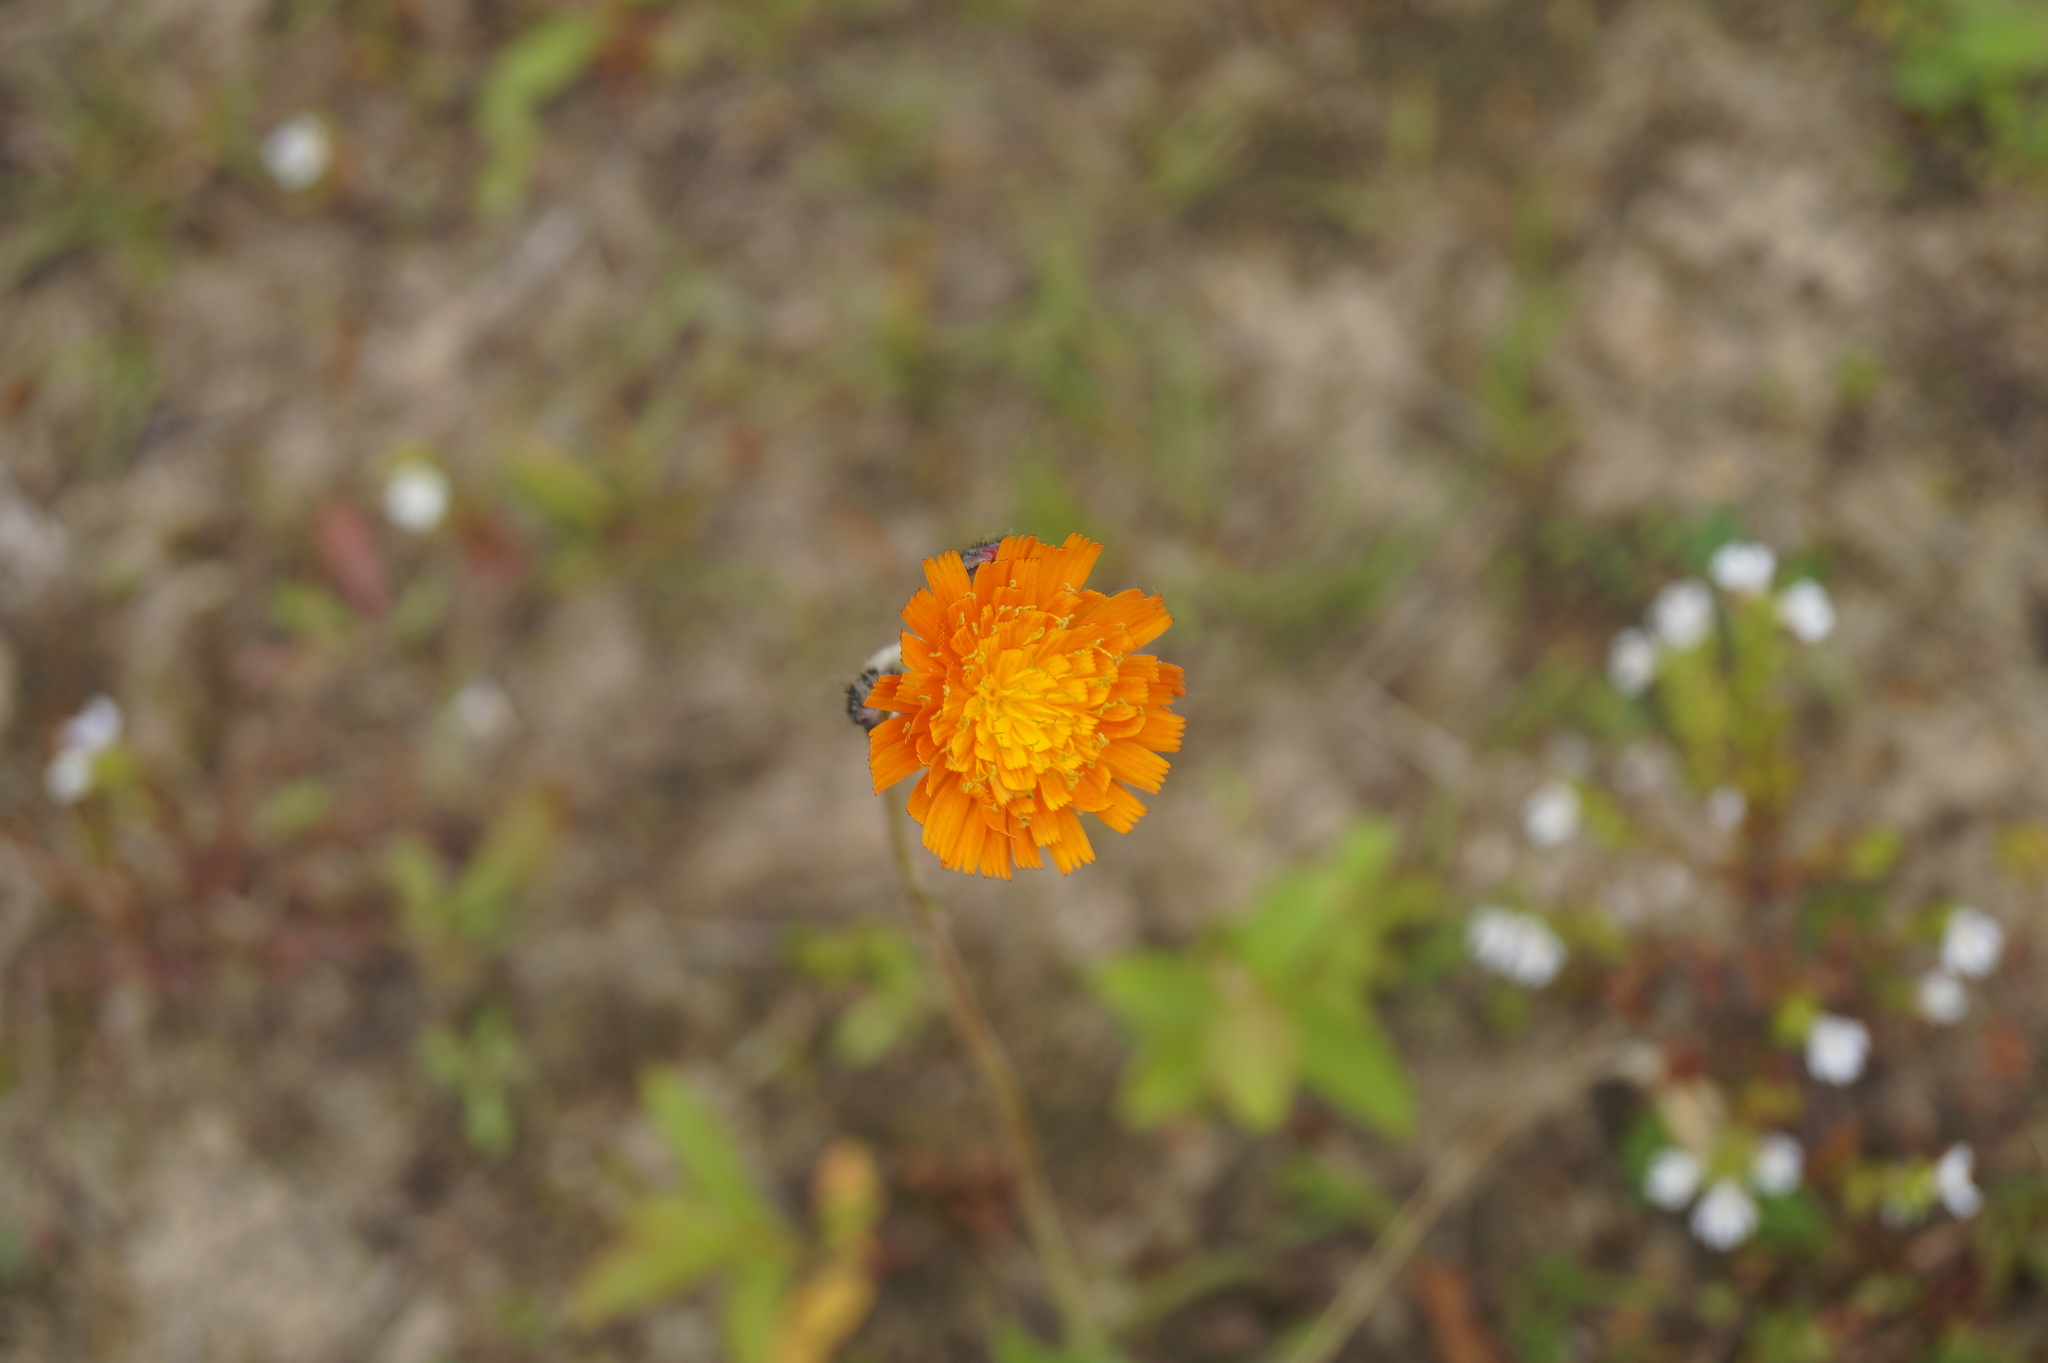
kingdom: Plantae
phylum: Tracheophyta
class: Magnoliopsida
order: Asterales
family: Asteraceae
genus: Pilosella
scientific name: Pilosella aurantiaca
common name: Fox-and-cubs
